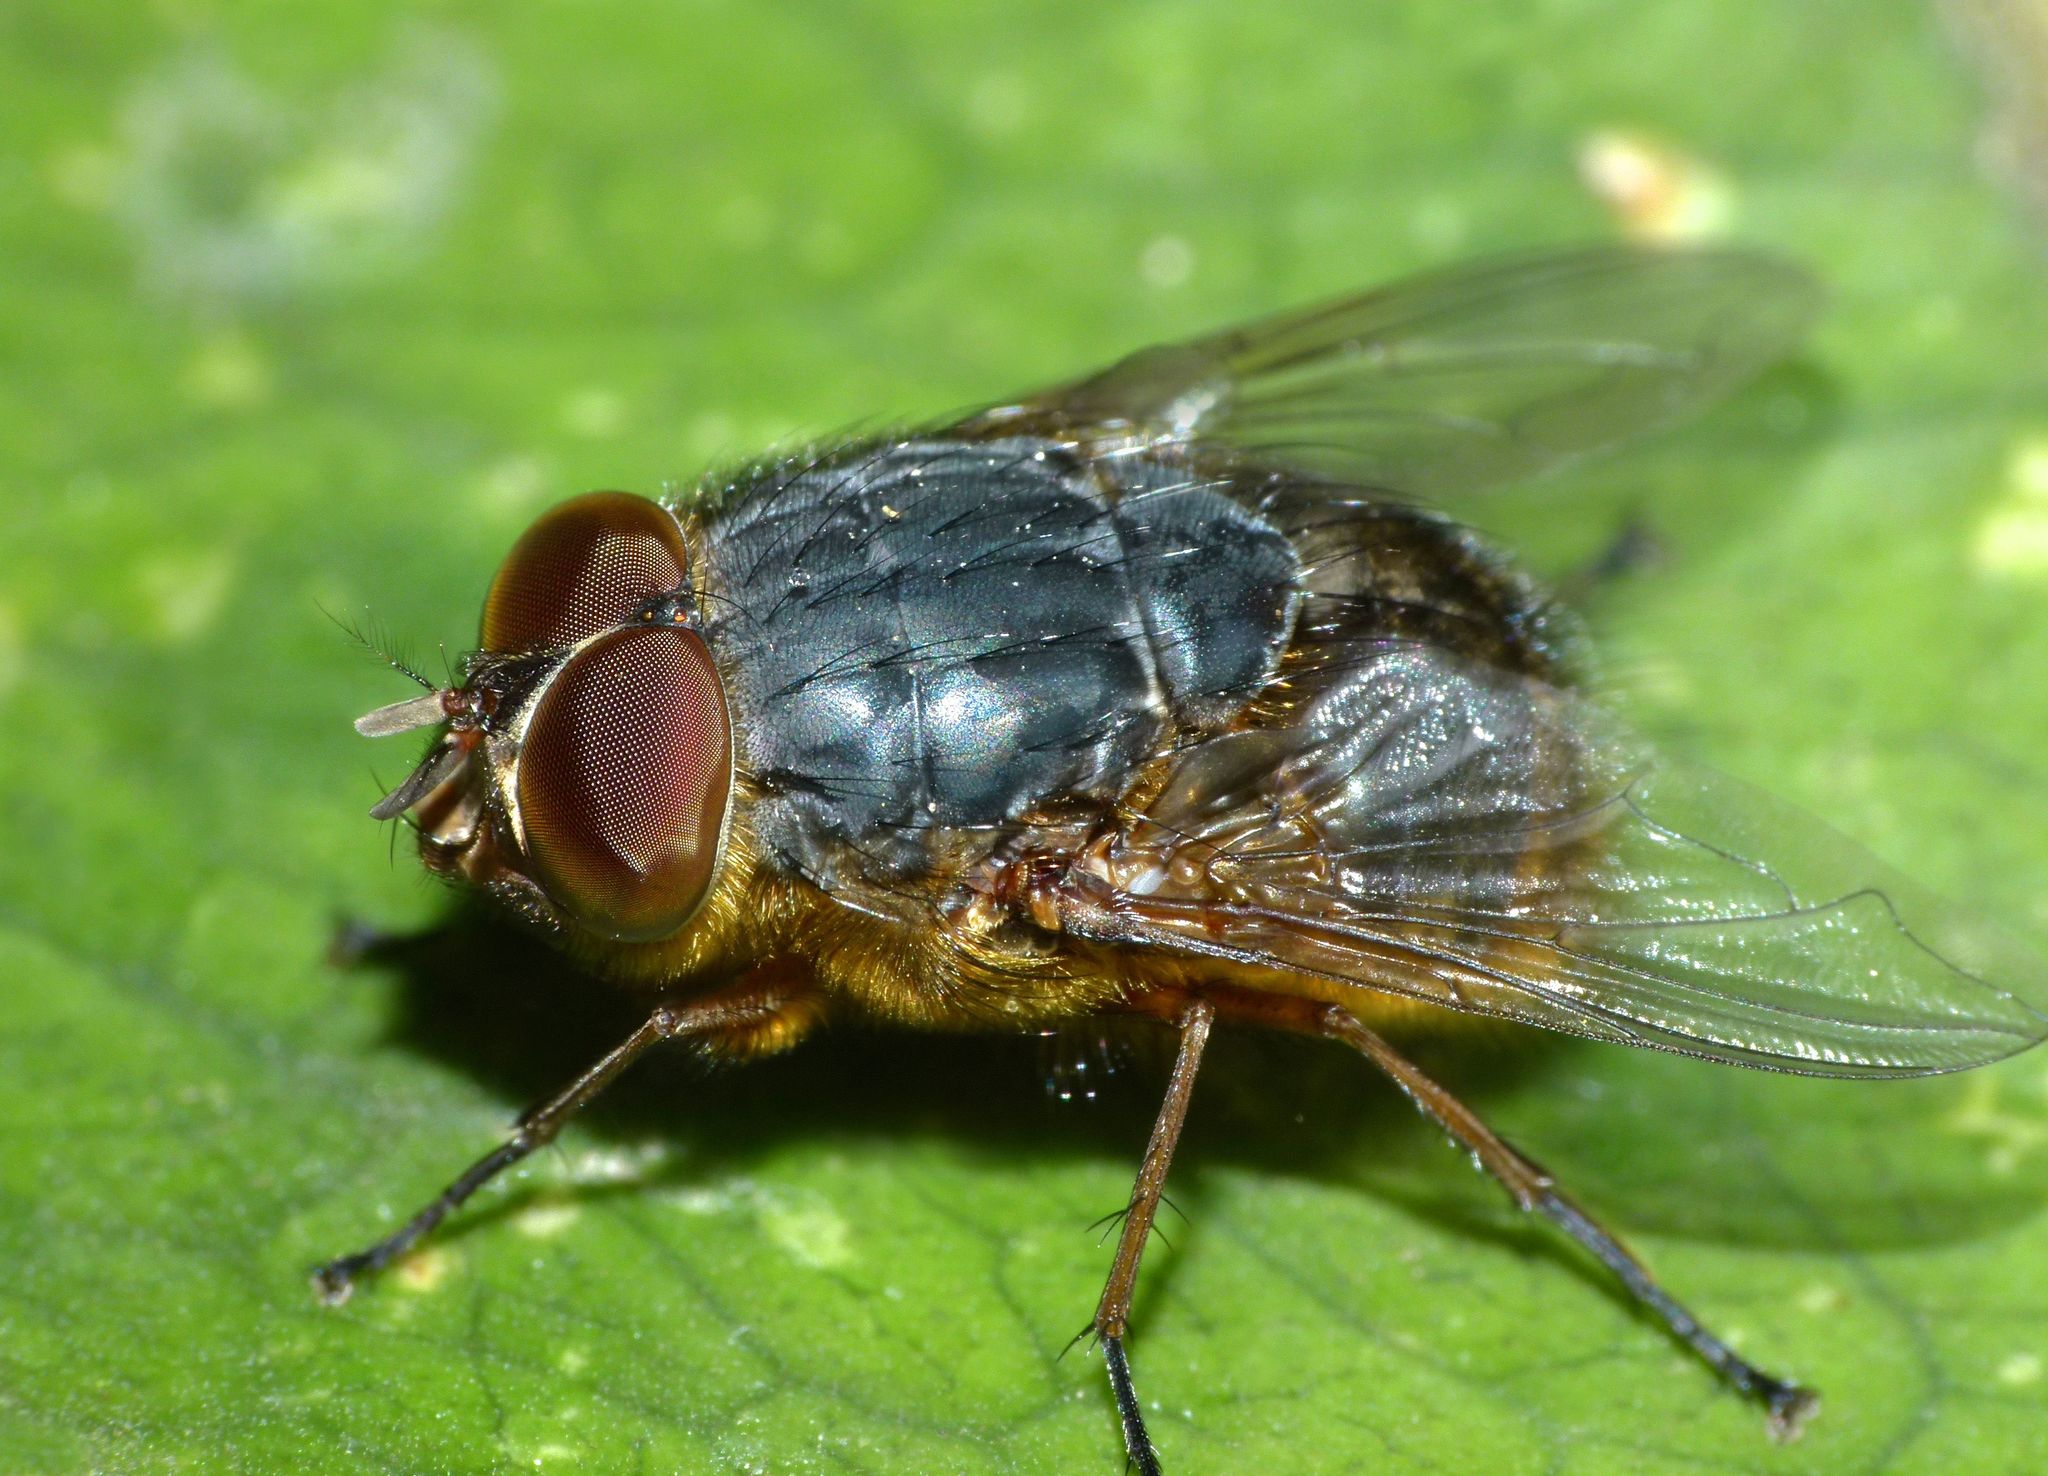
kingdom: Animalia
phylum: Arthropoda
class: Insecta
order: Diptera
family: Calliphoridae
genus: Calliphora
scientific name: Calliphora stygia
